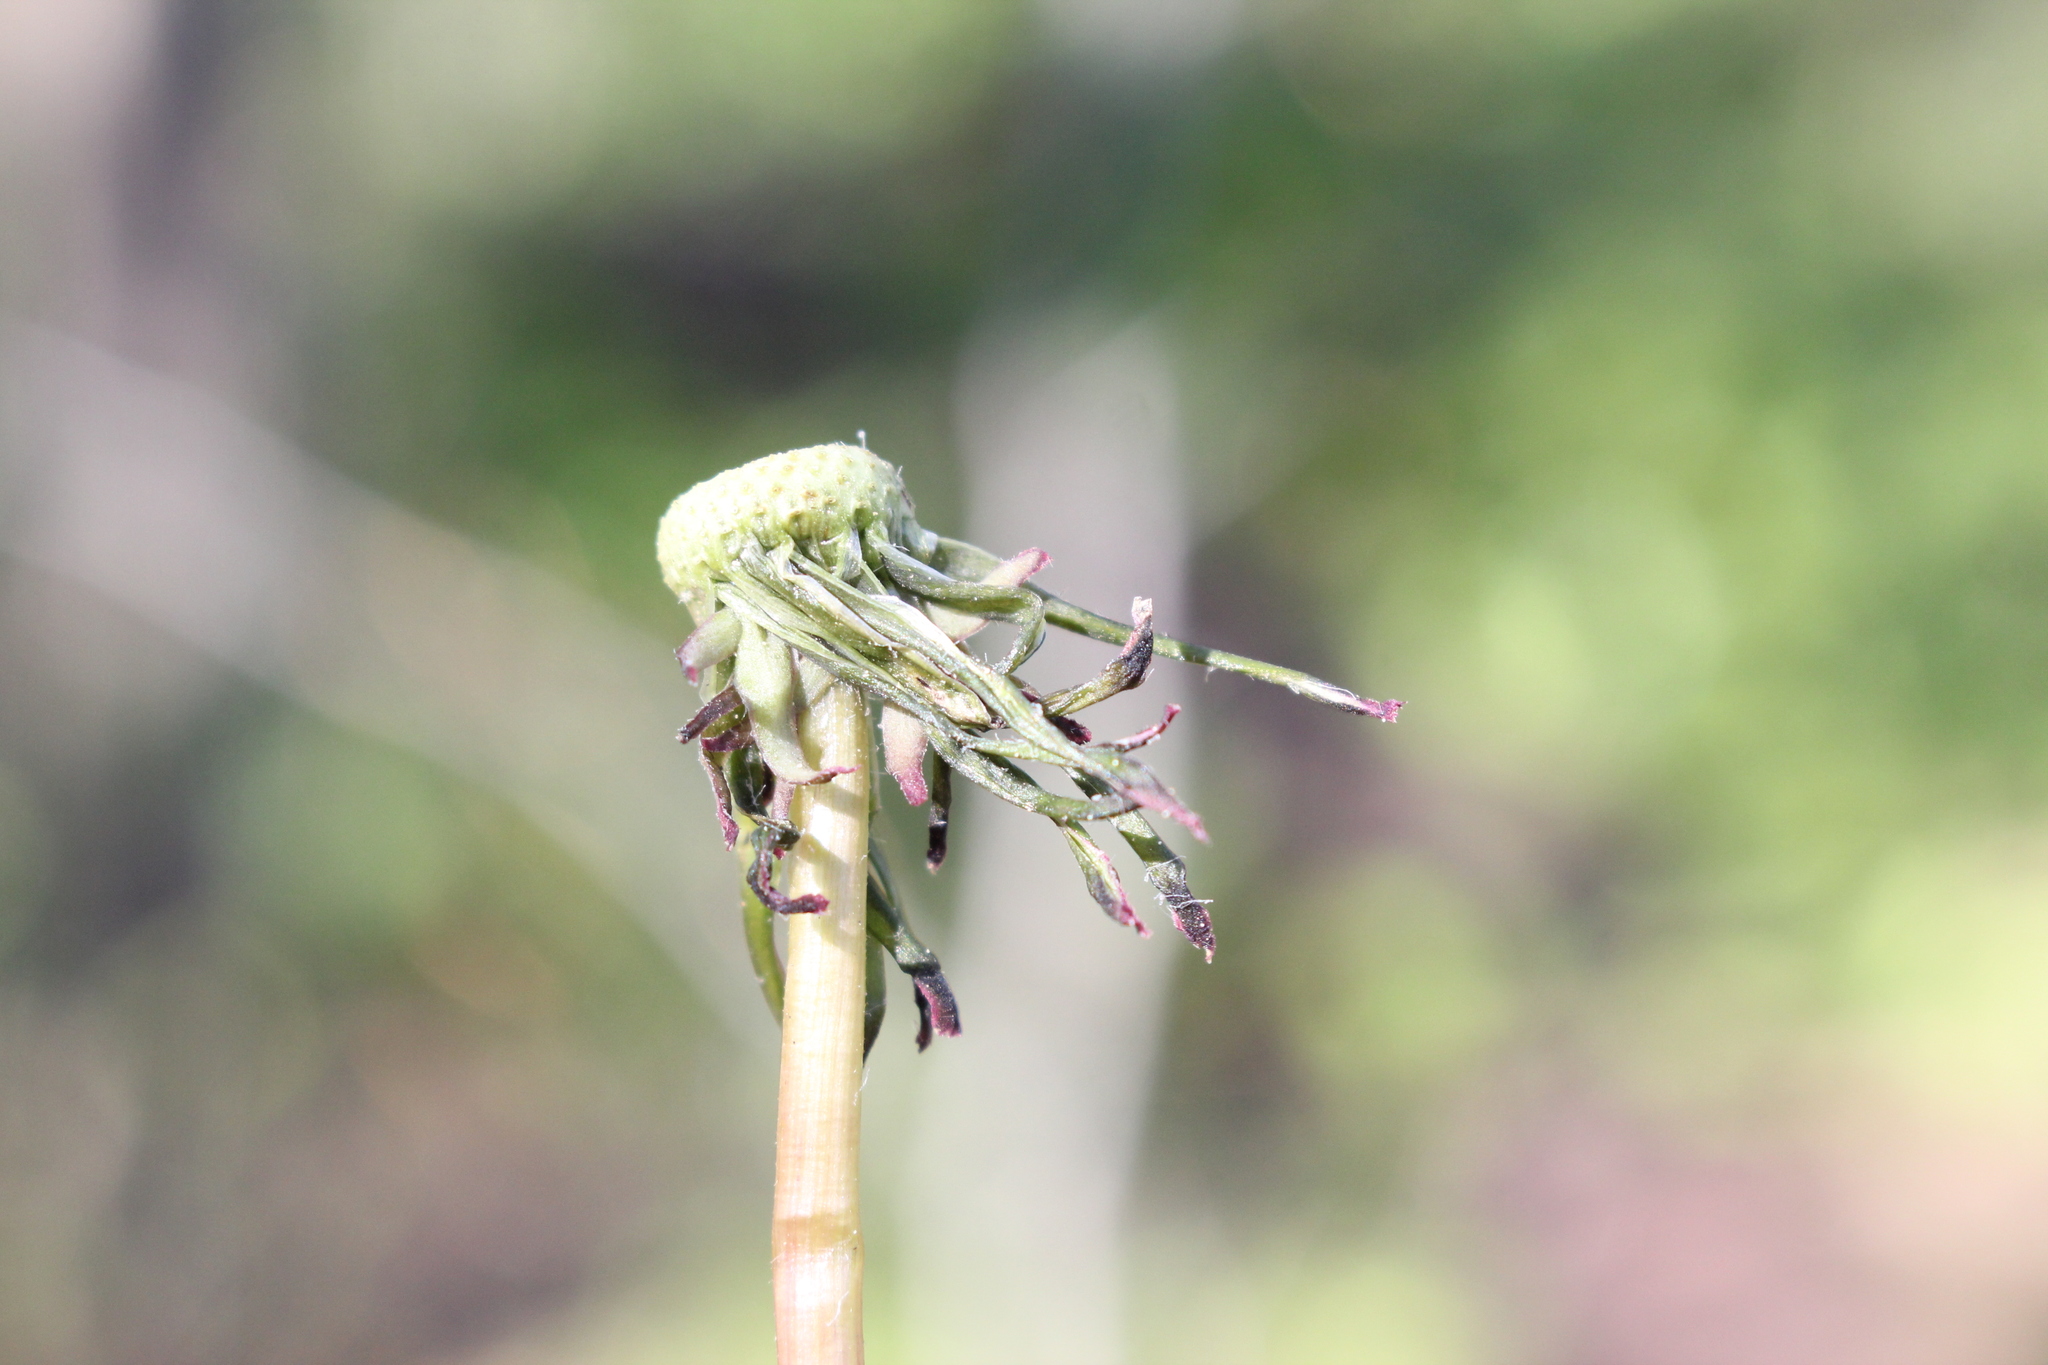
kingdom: Plantae
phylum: Tracheophyta
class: Magnoliopsida
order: Asterales
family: Asteraceae
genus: Taraxacum
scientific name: Taraxacum officinale
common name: Common dandelion
